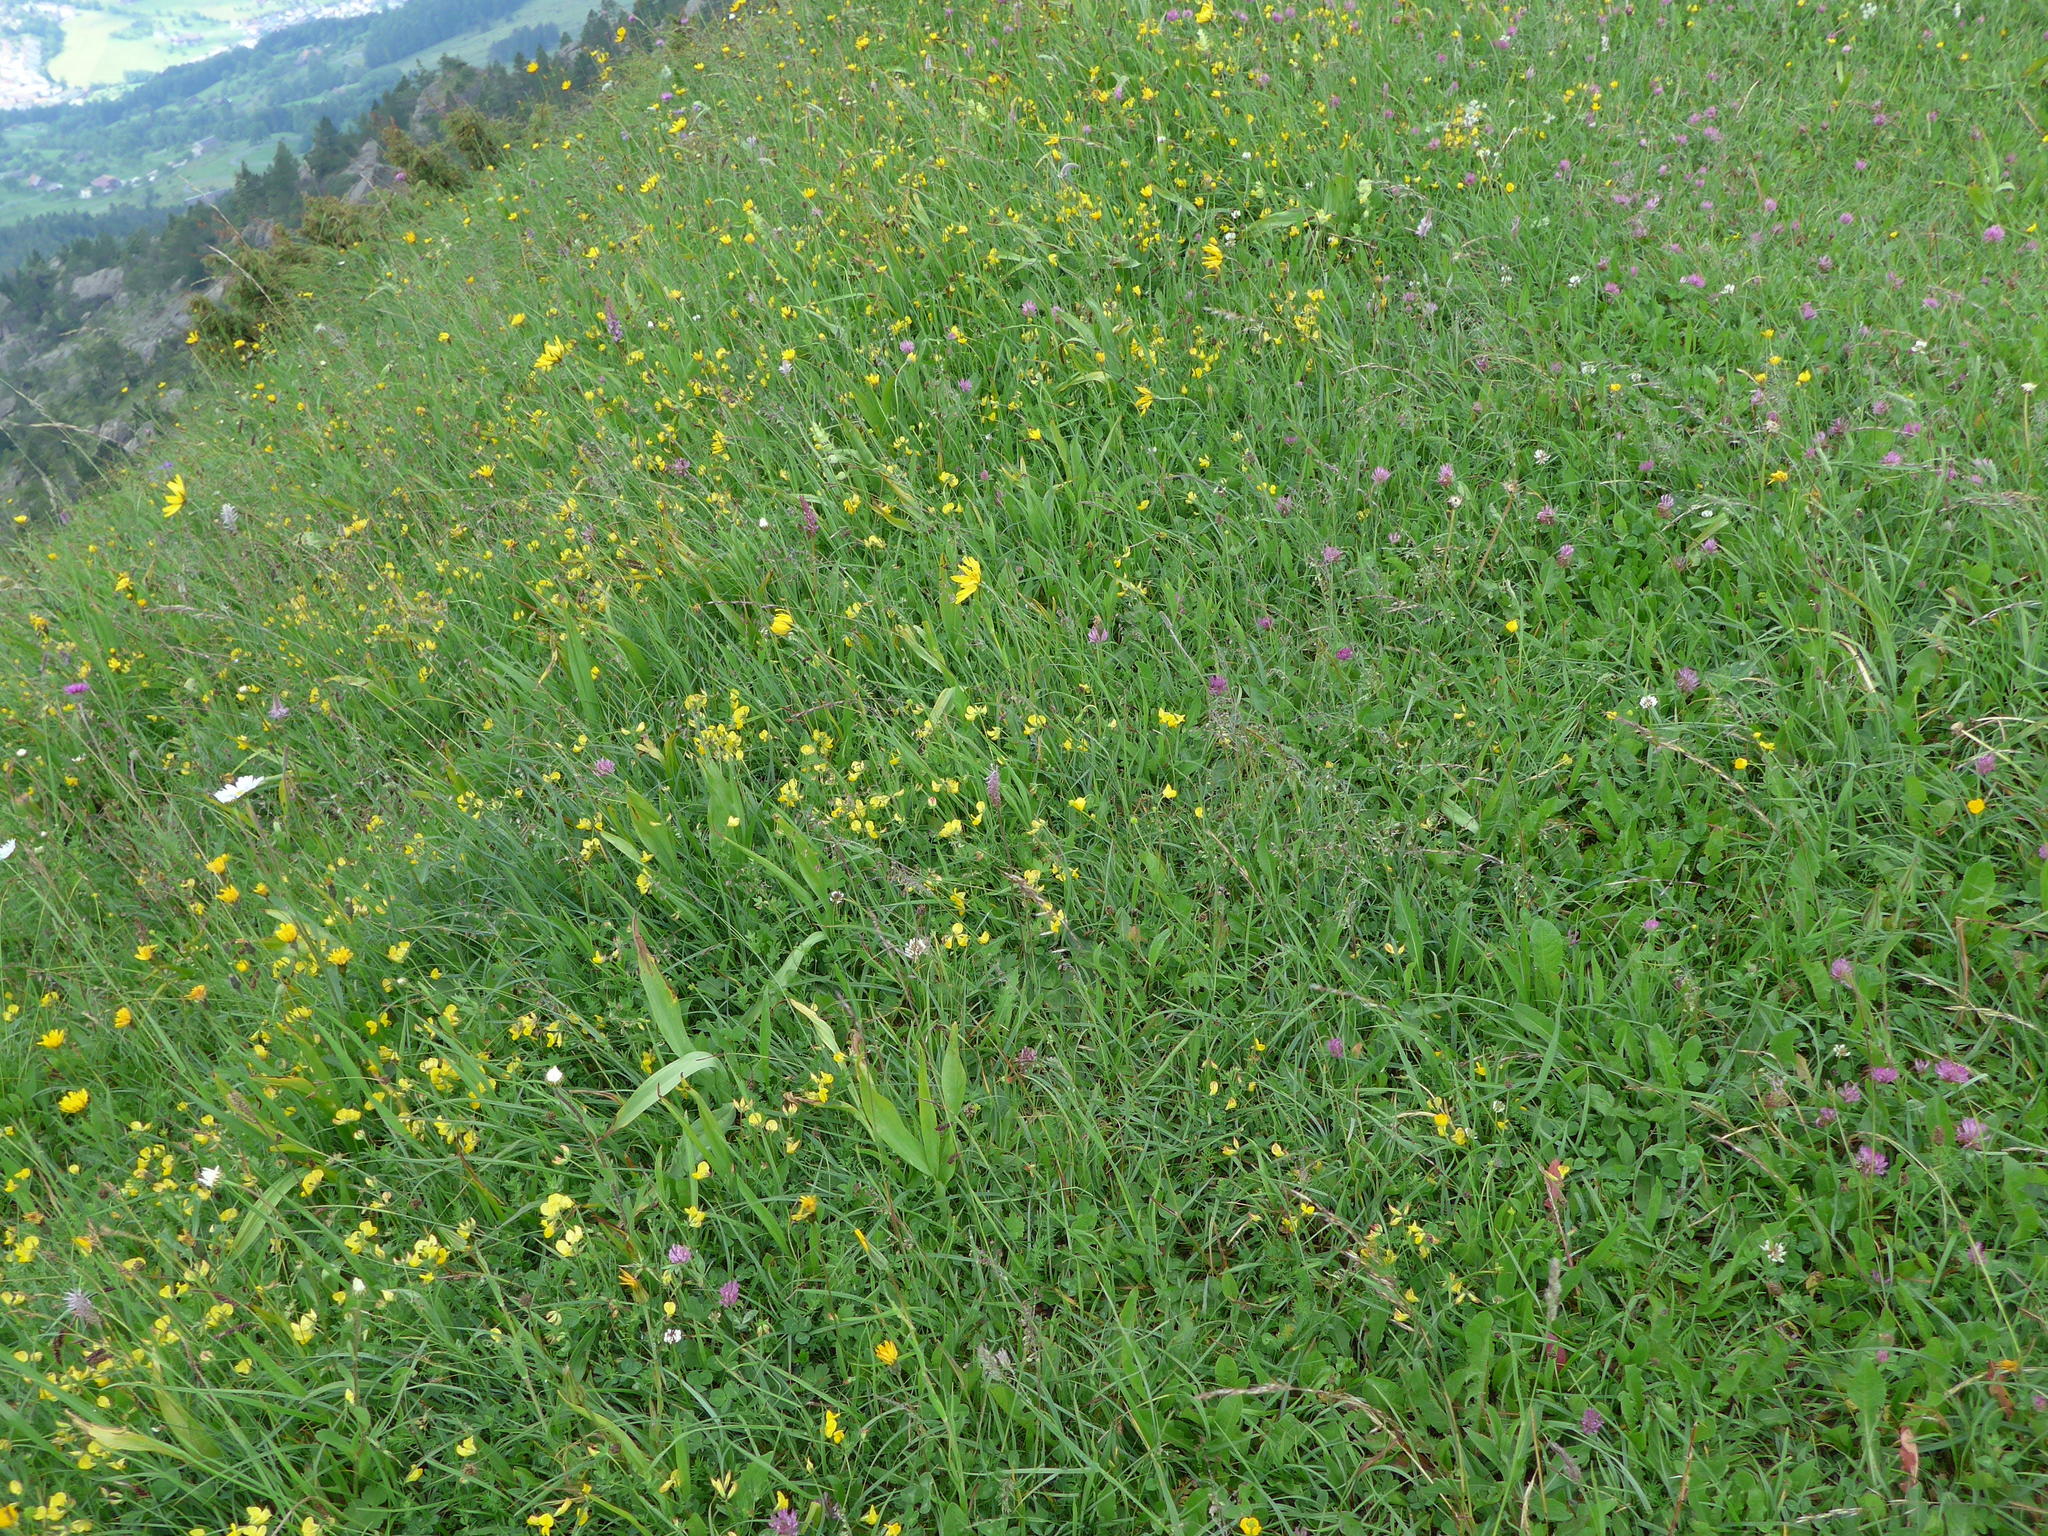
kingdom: Plantae
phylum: Tracheophyta
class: Magnoliopsida
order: Asterales
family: Asteraceae
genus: Tragopogon
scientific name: Tragopogon pratensis
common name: Goat's-beard
